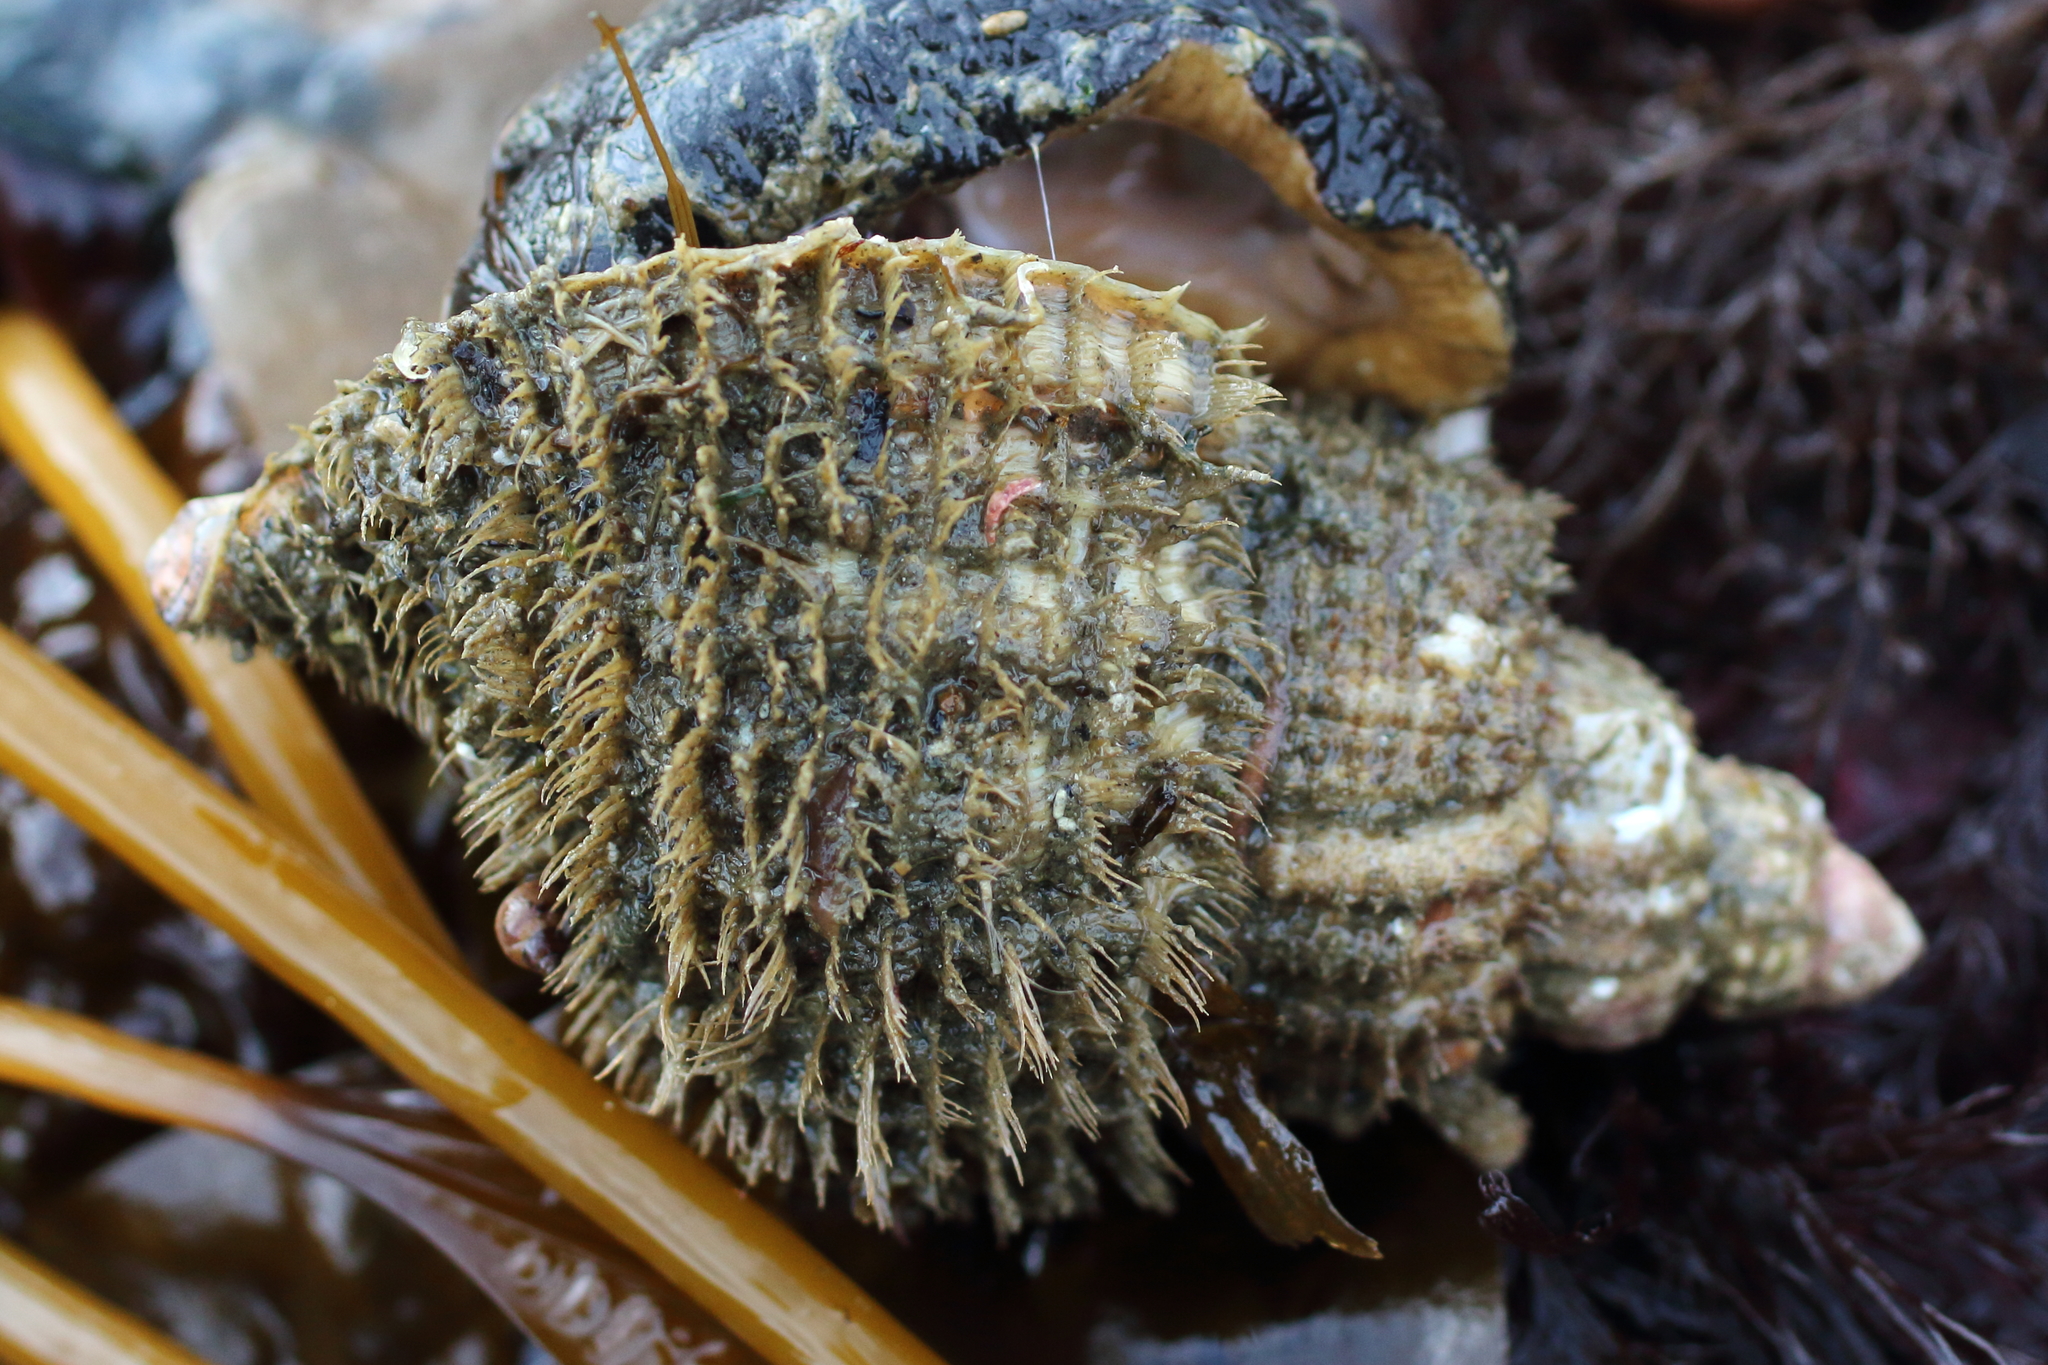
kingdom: Animalia
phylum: Mollusca
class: Gastropoda
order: Littorinimorpha
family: Cymatiidae
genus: Fusitriton
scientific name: Fusitriton oregonensis
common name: Oregon hairy triton
